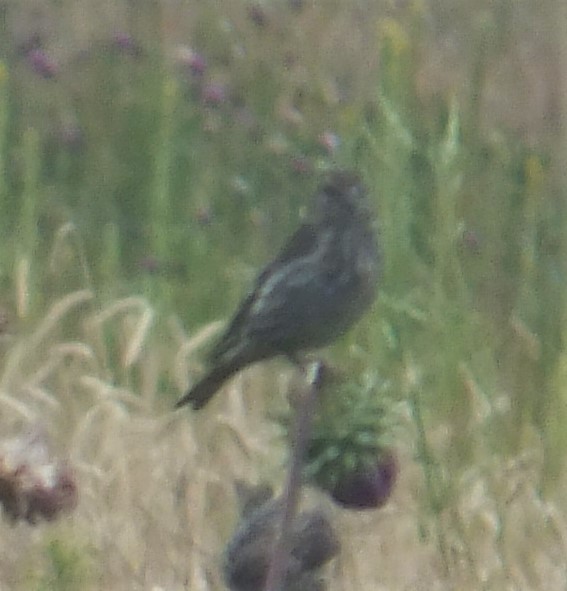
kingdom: Animalia
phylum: Chordata
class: Aves
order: Passeriformes
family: Fringillidae
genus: Spinus
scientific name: Spinus pinus
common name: Pine siskin
